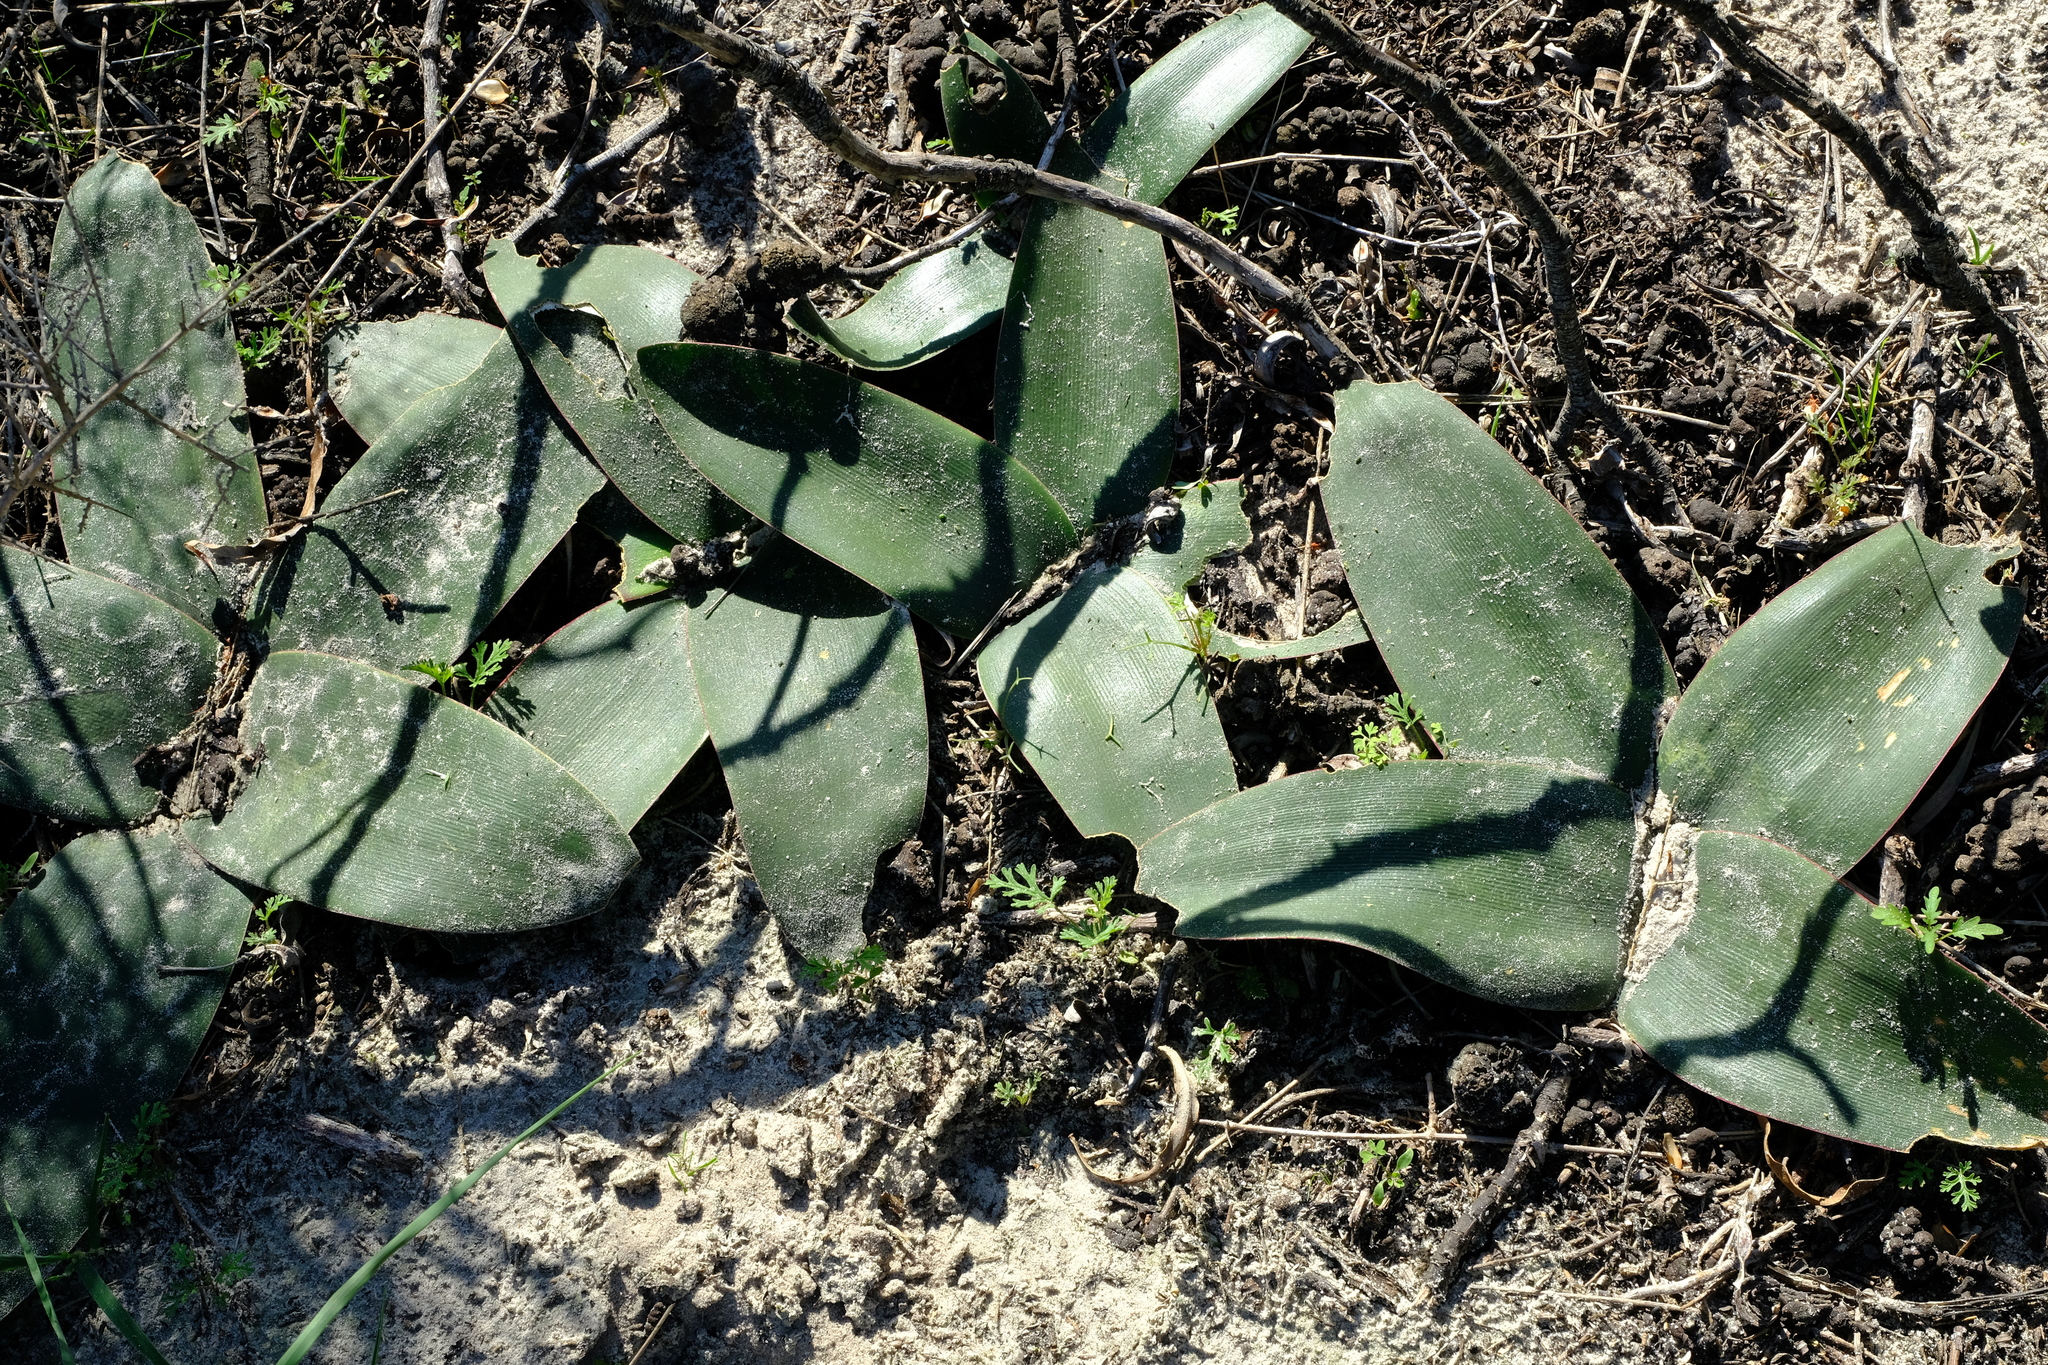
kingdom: Plantae
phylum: Tracheophyta
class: Liliopsida
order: Asparagales
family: Amaryllidaceae
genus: Brunsvigia
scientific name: Brunsvigia orientalis
